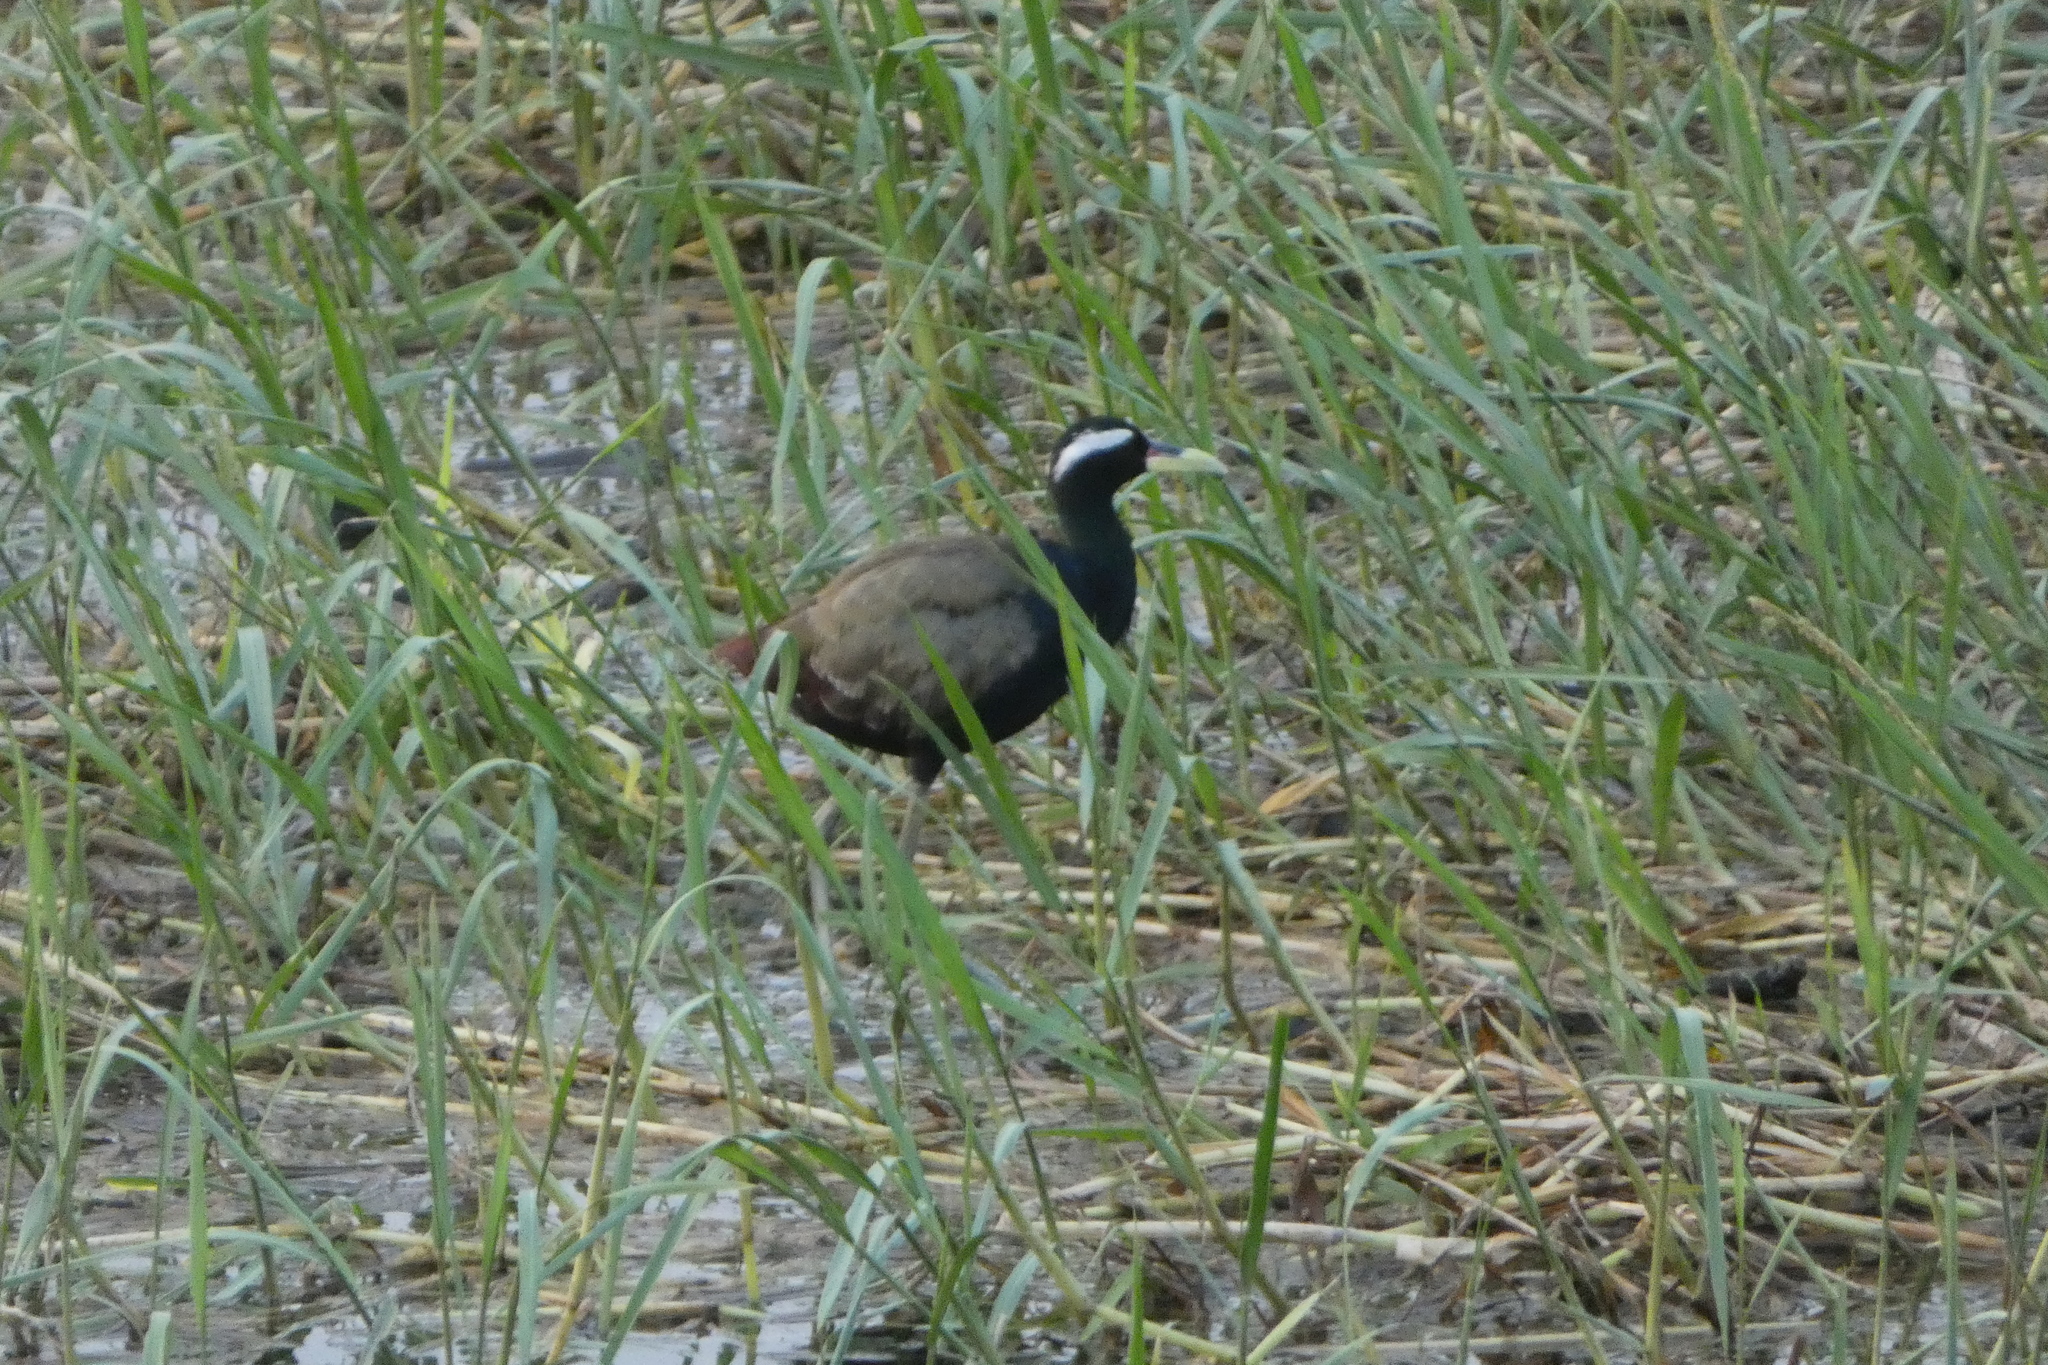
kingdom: Animalia
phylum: Chordata
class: Aves
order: Charadriiformes
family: Jacanidae
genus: Metopidius
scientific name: Metopidius indicus
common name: Bronze-winged jacana
